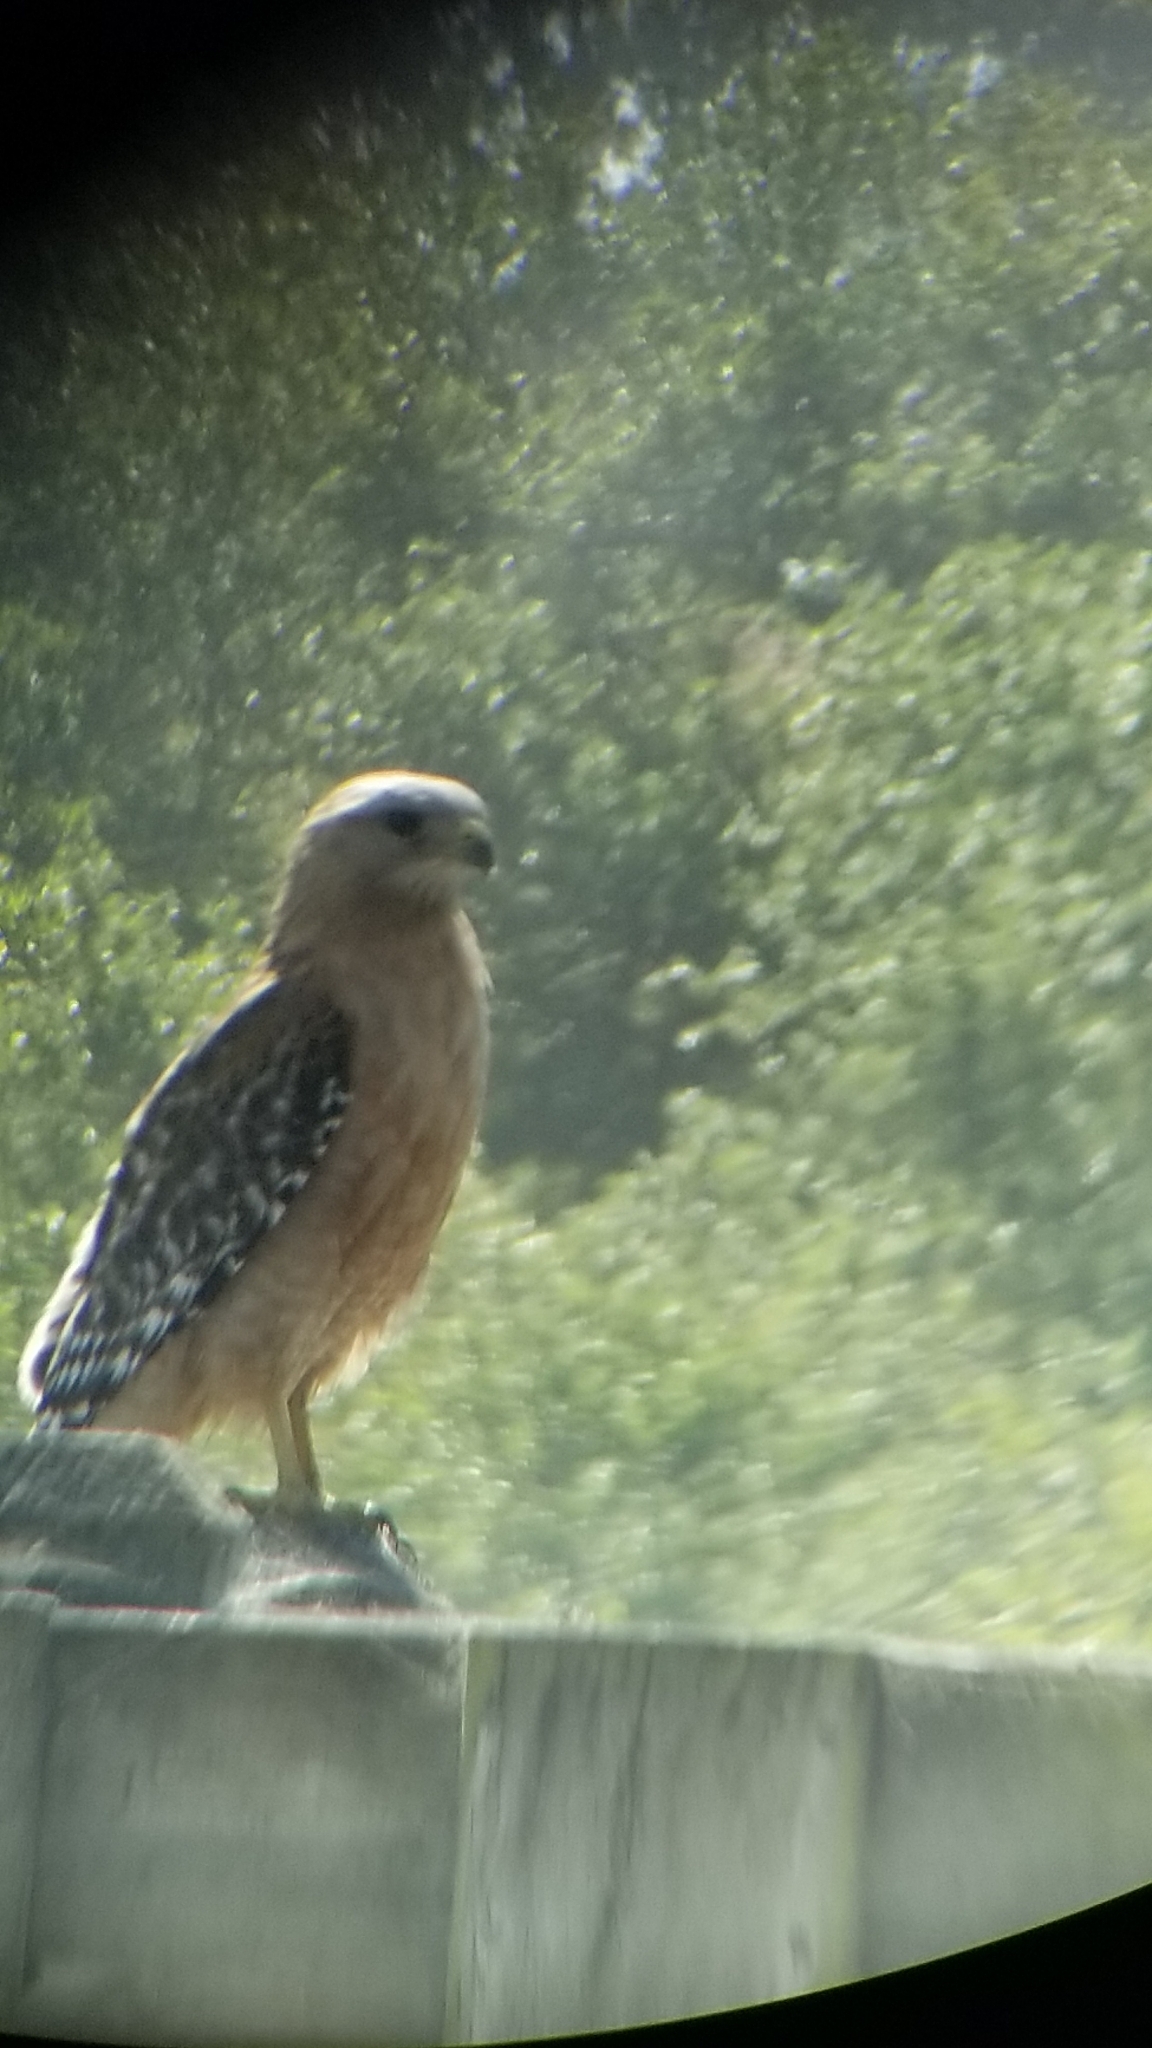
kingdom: Animalia
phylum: Chordata
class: Aves
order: Accipitriformes
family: Accipitridae
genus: Buteo
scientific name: Buteo lineatus
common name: Red-shouldered hawk
